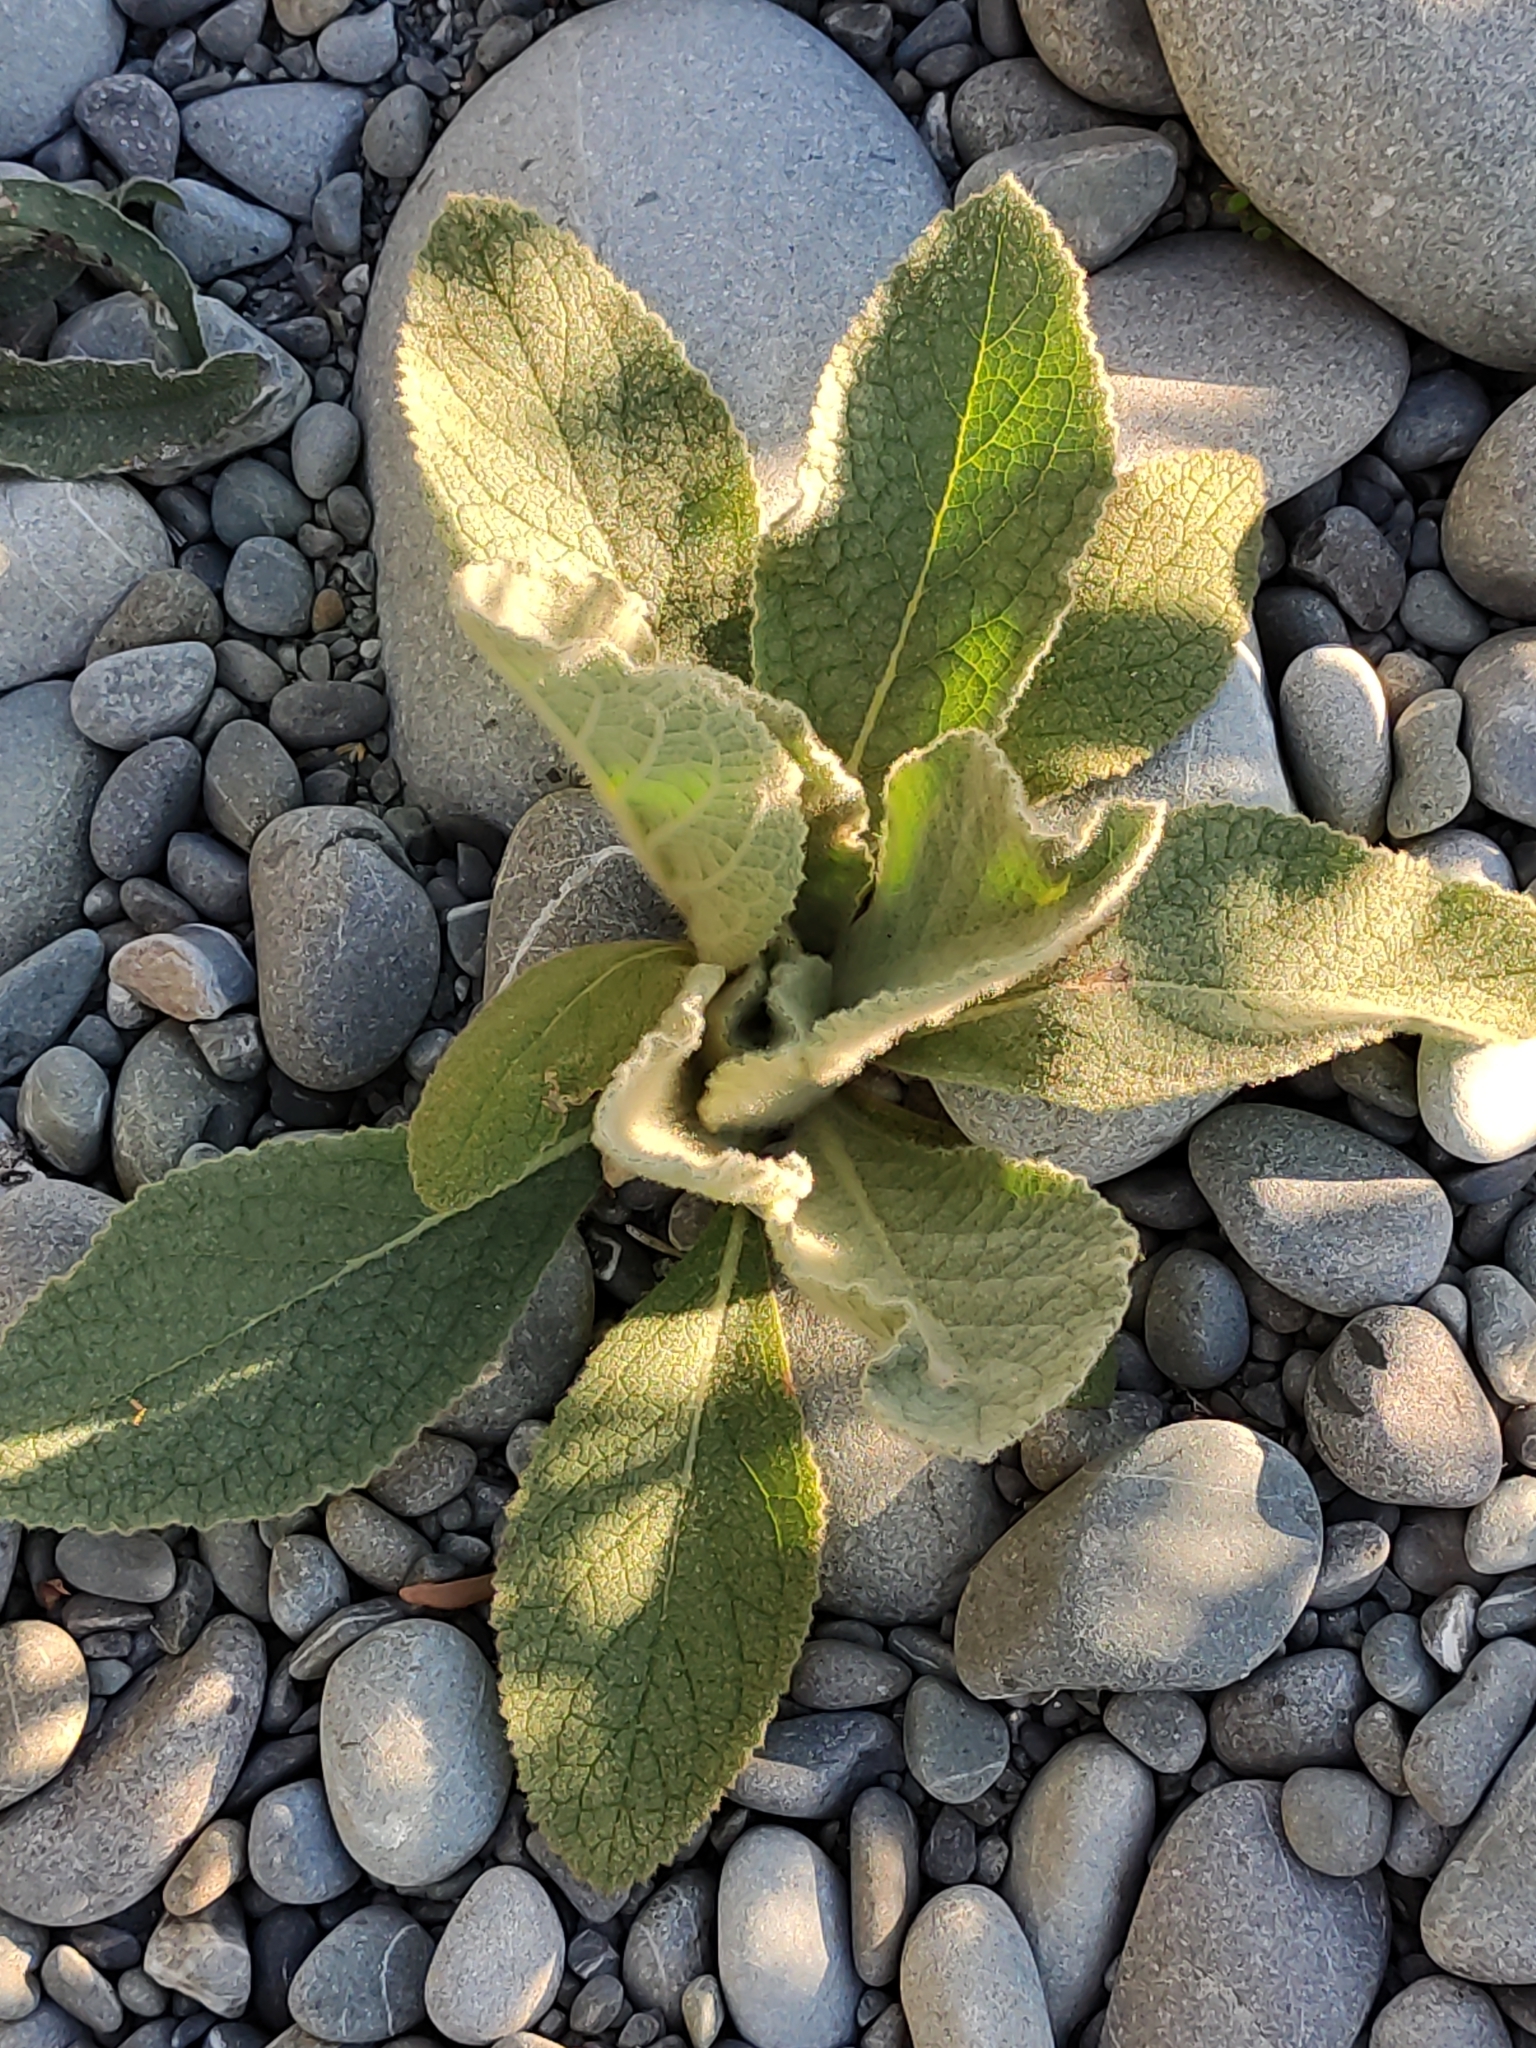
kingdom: Plantae
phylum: Tracheophyta
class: Magnoliopsida
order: Lamiales
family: Scrophulariaceae
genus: Verbascum
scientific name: Verbascum thapsus
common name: Common mullein
